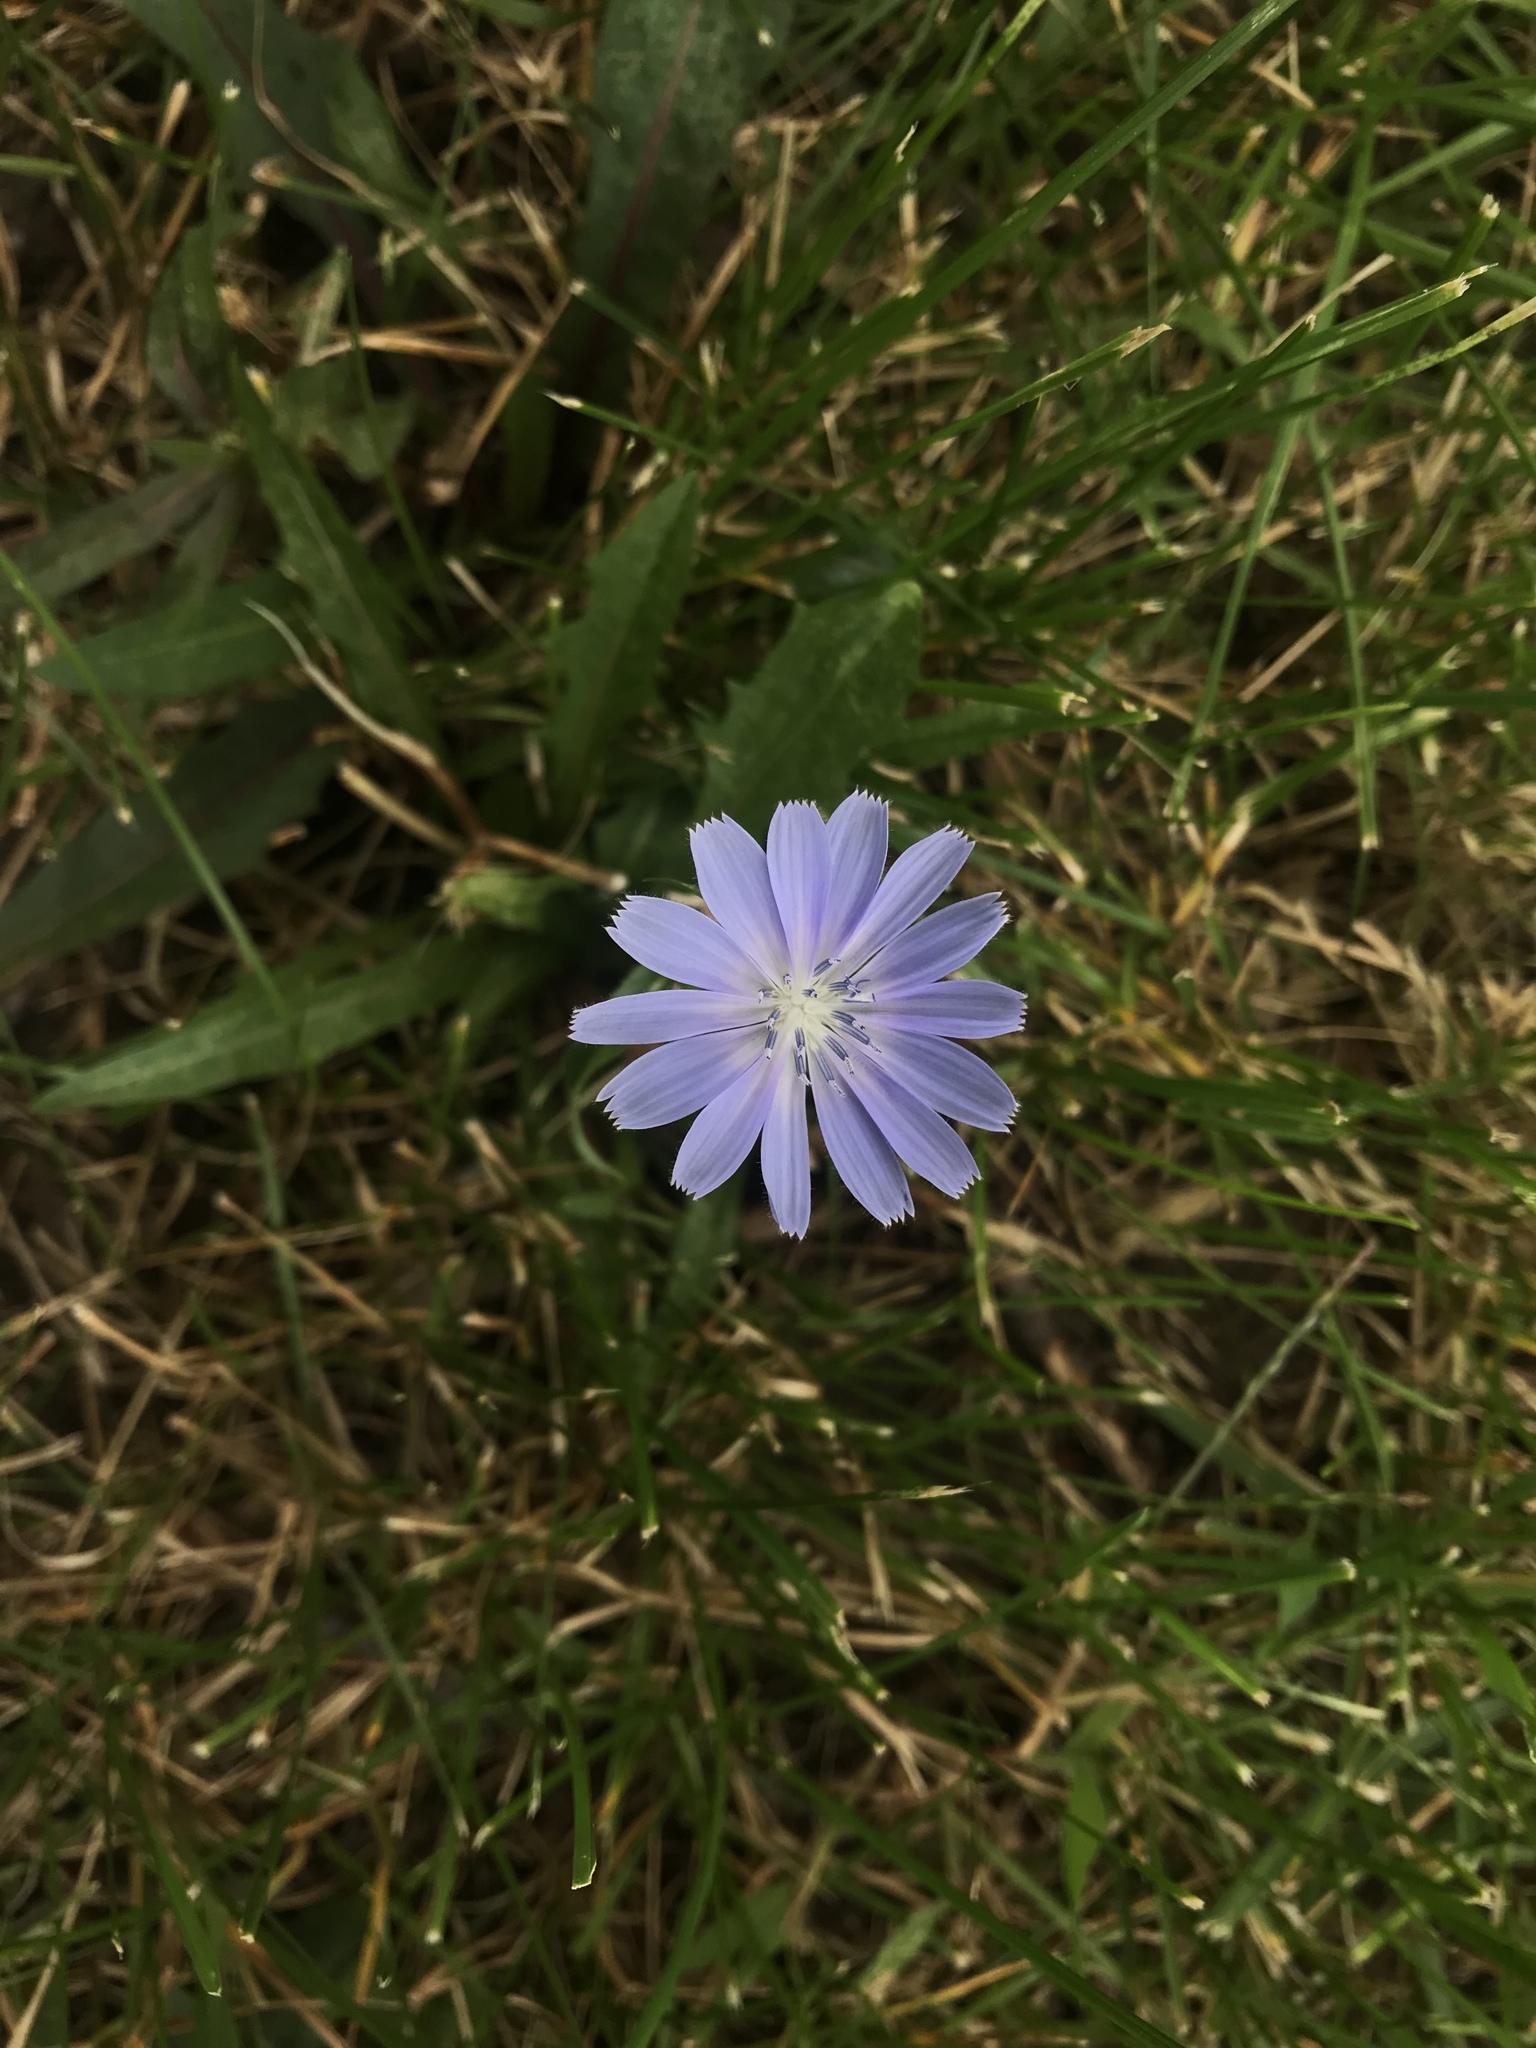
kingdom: Plantae
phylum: Tracheophyta
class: Magnoliopsida
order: Asterales
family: Asteraceae
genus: Cichorium
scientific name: Cichorium intybus
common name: Chicory
